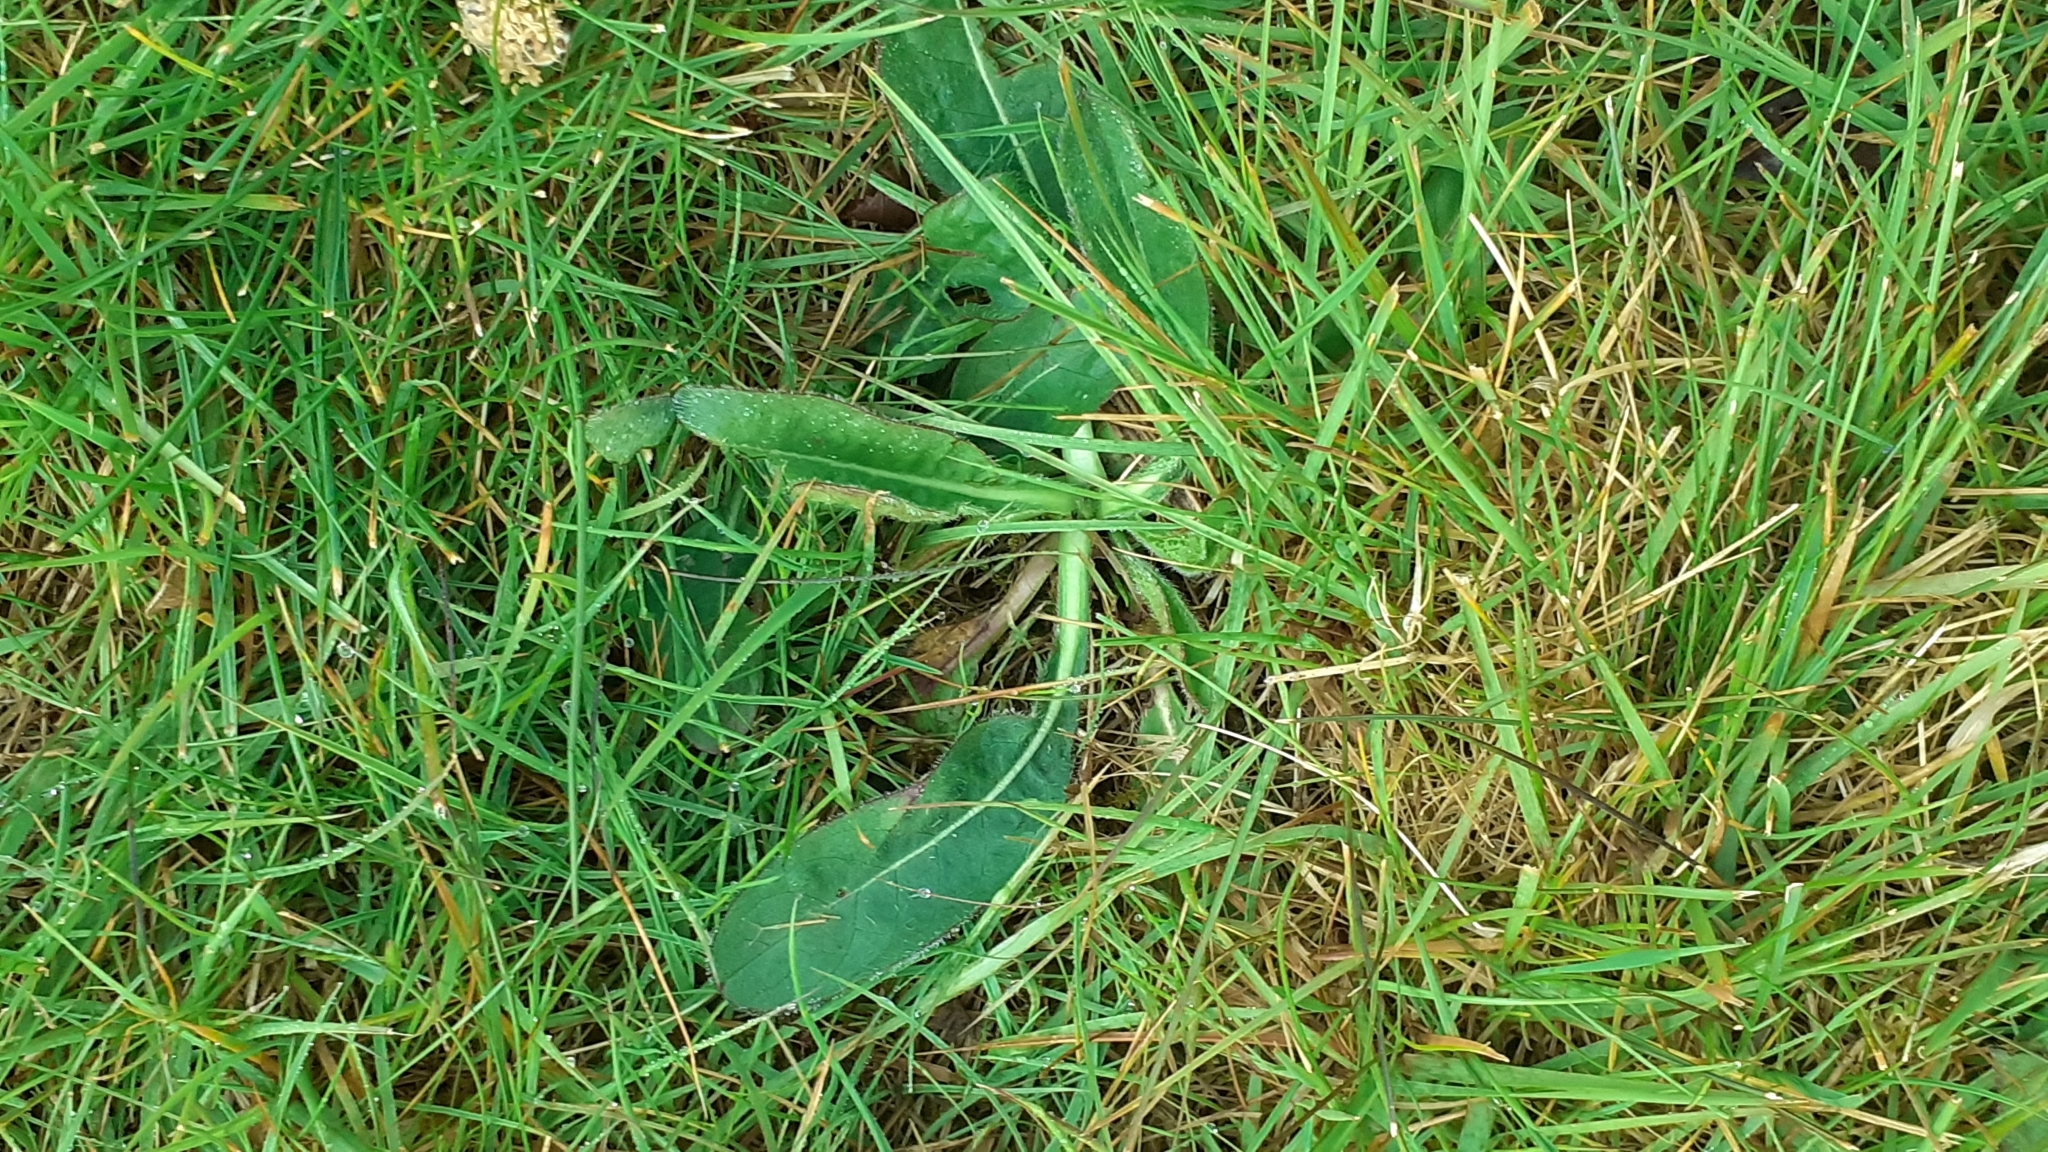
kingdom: Plantae
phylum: Tracheophyta
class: Magnoliopsida
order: Dipsacales
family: Caprifoliaceae
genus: Succisa
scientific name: Succisa pratensis
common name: Devil's-bit
